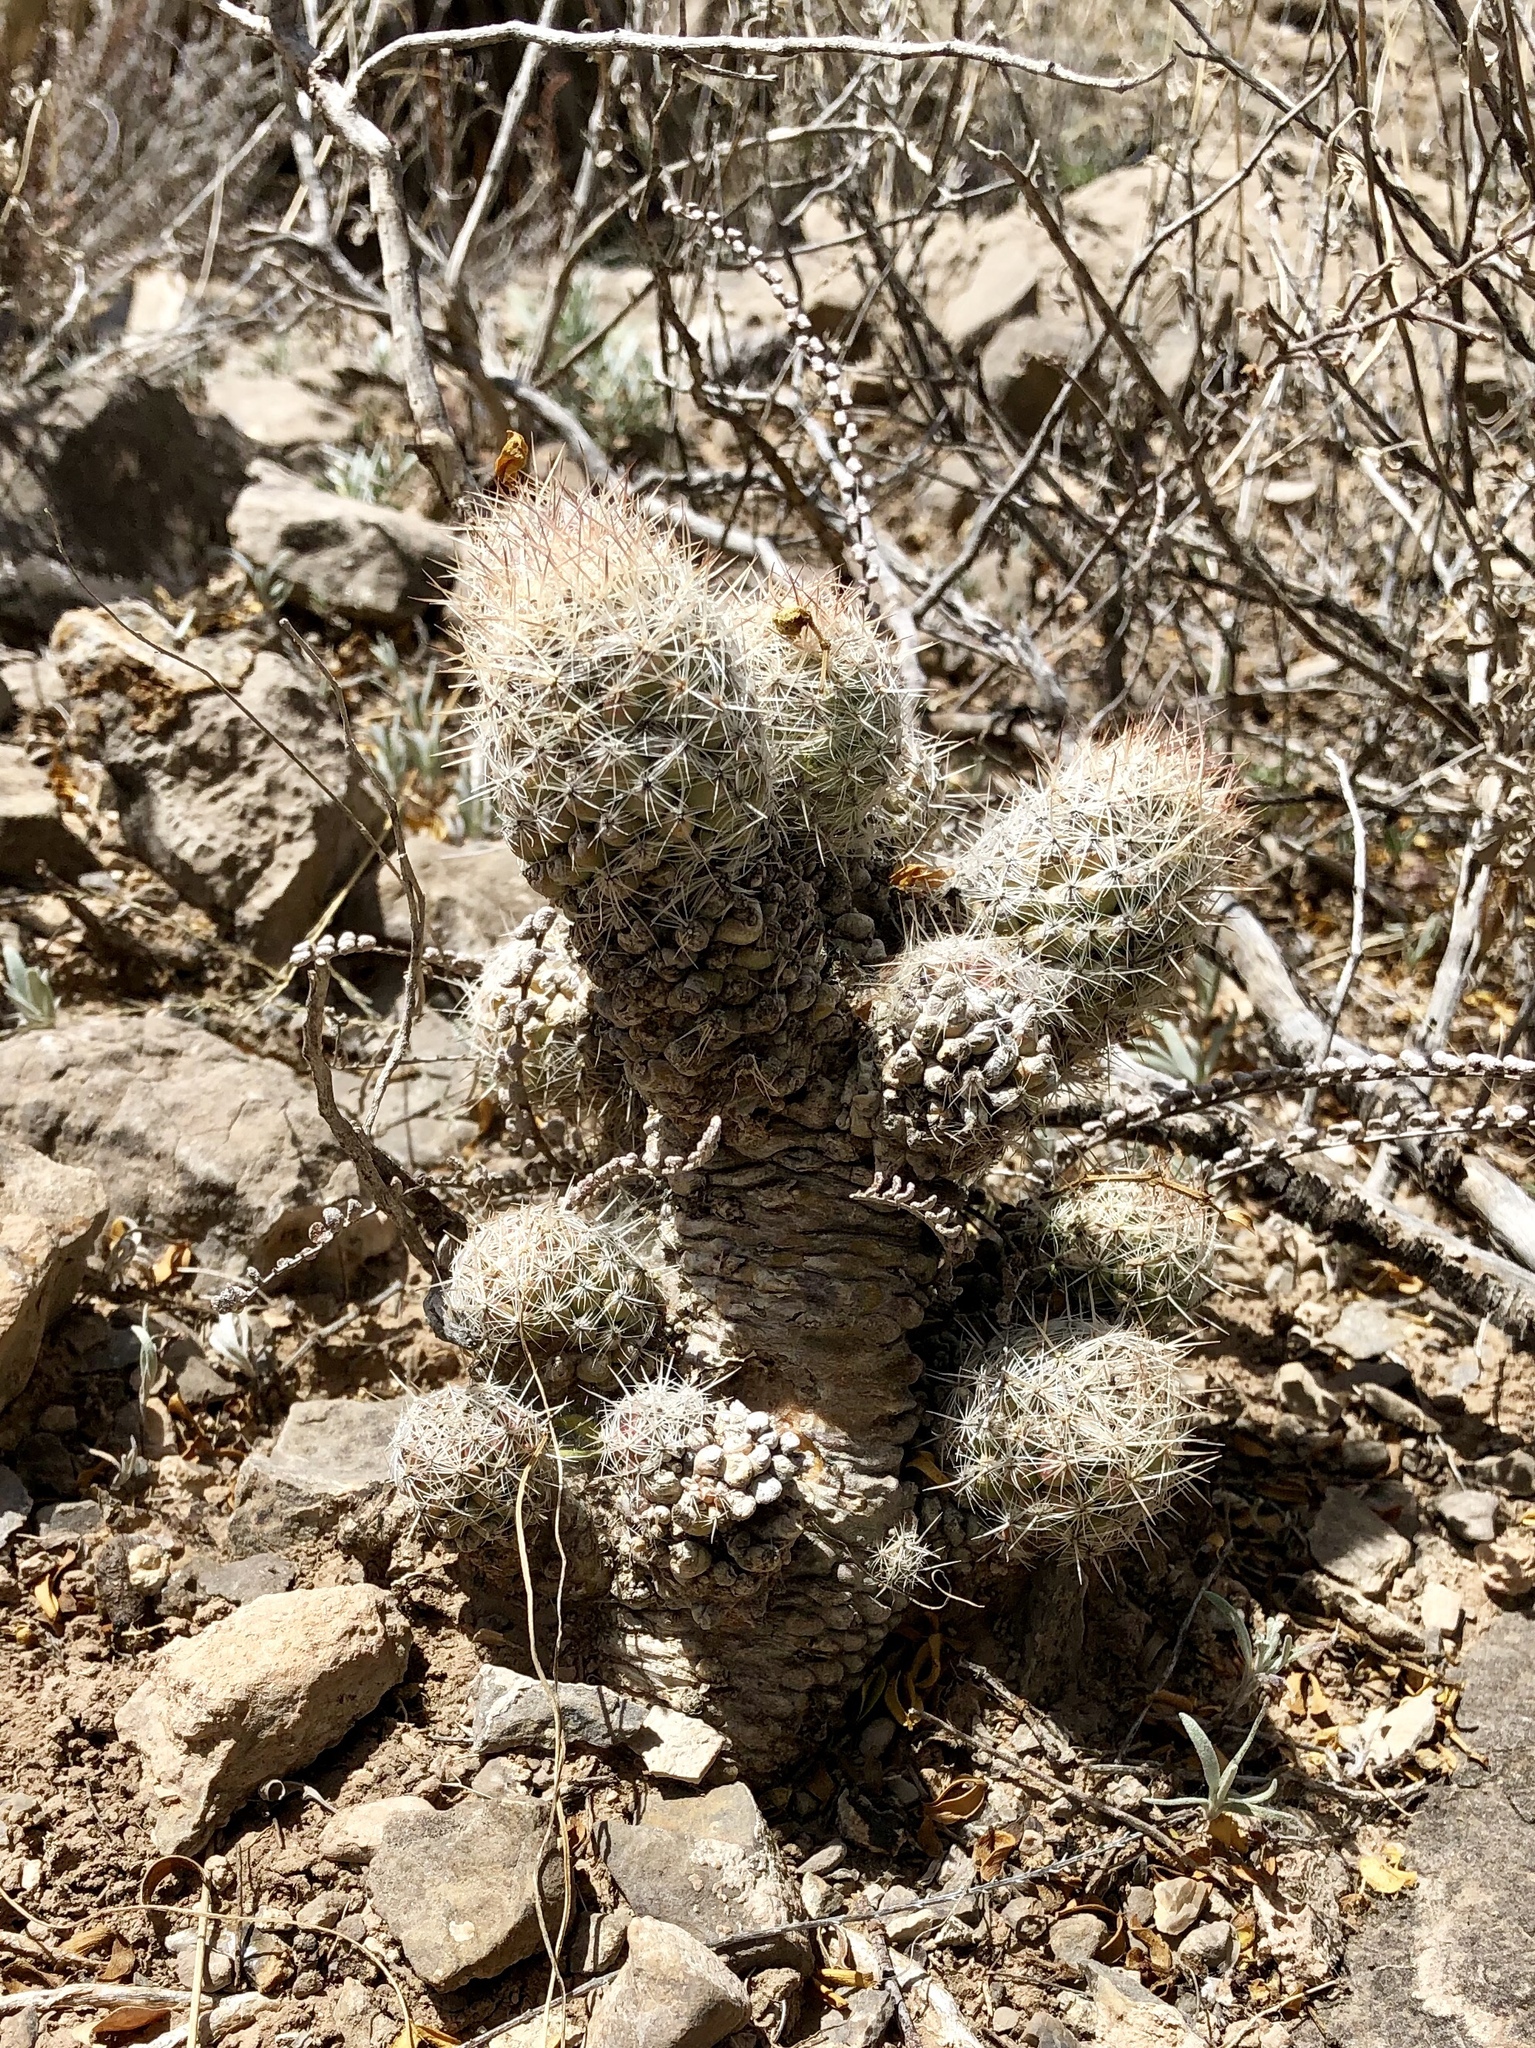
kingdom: Plantae
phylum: Tracheophyta
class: Magnoliopsida
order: Caryophyllales
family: Cactaceae
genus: Pelecyphora
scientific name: Pelecyphora tuberculosa
